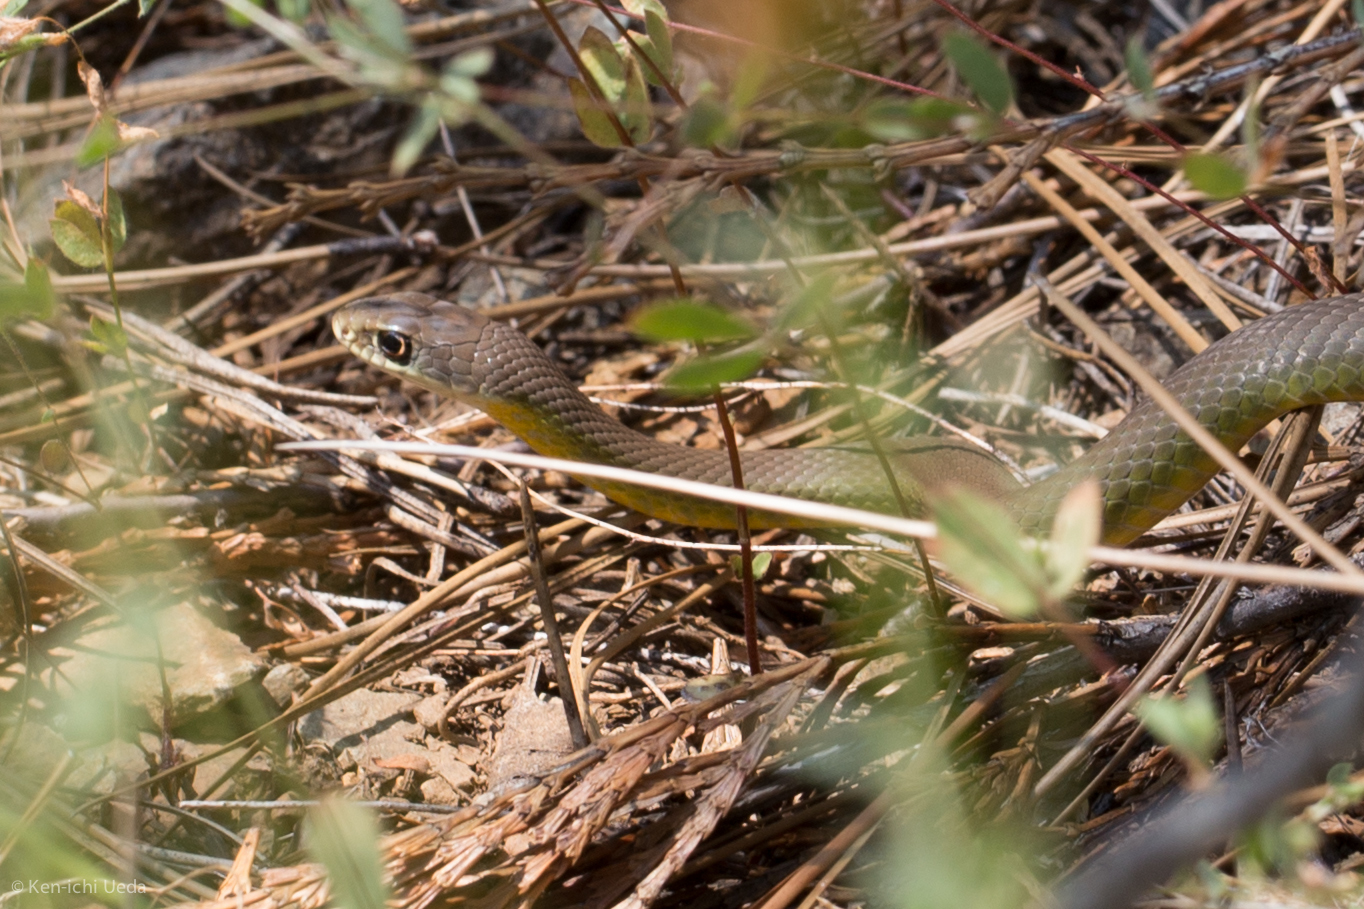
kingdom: Animalia
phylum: Chordata
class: Squamata
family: Colubridae
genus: Coluber
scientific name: Coluber constrictor
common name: Eastern racer
